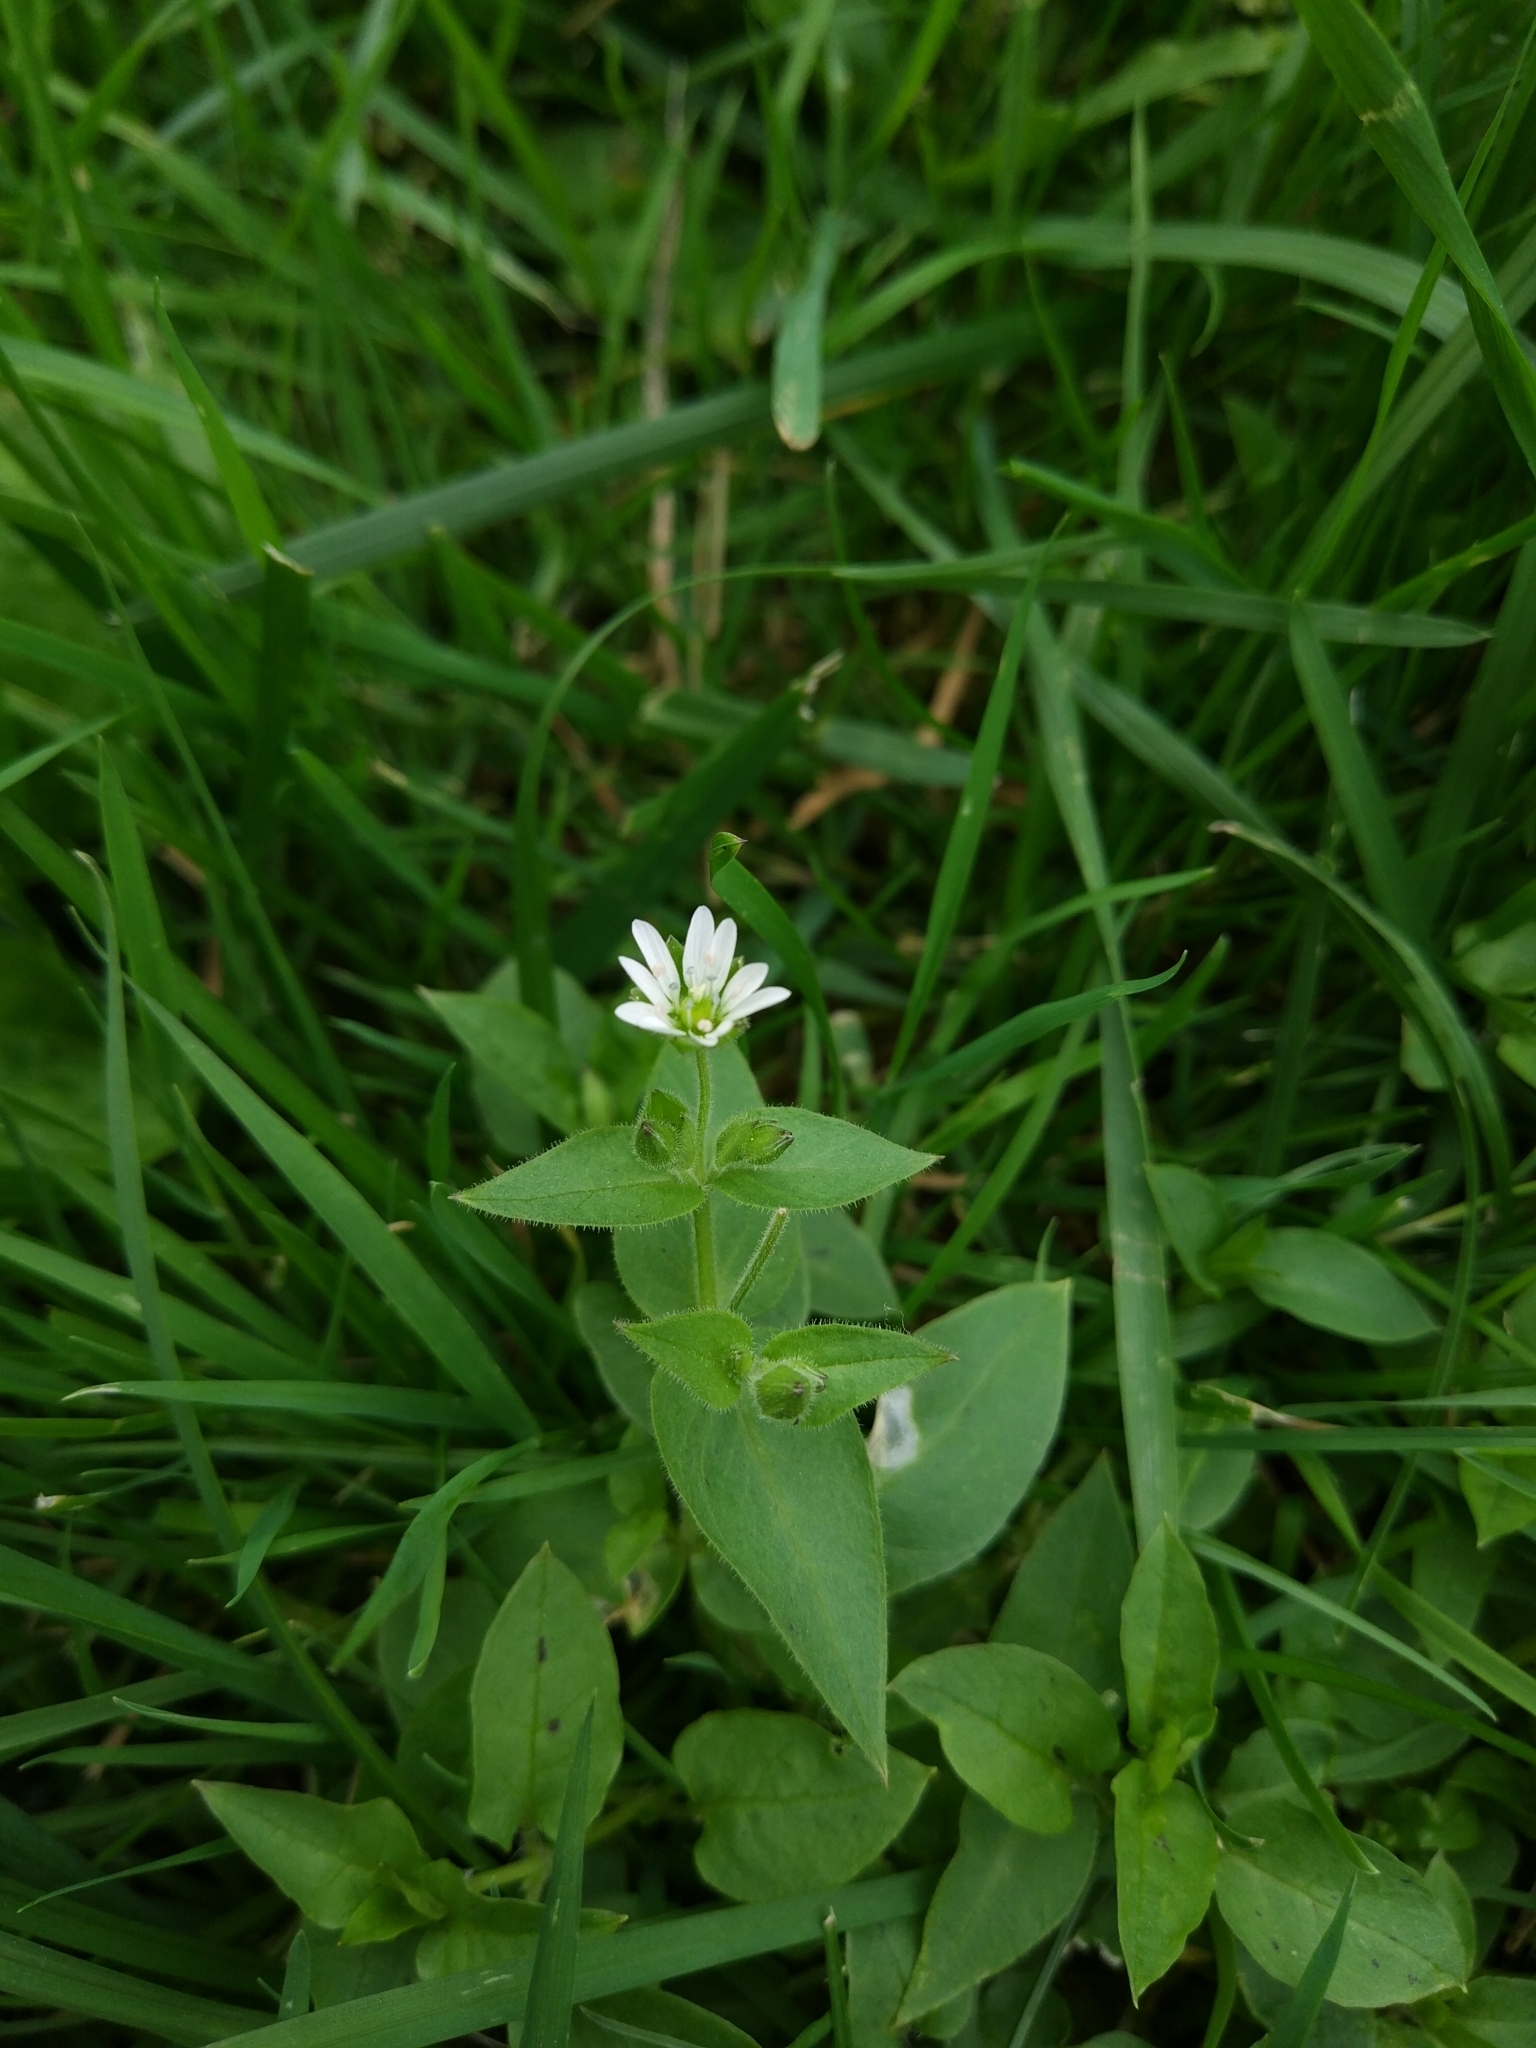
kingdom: Plantae
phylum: Tracheophyta
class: Magnoliopsida
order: Caryophyllales
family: Caryophyllaceae
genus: Stellaria
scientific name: Stellaria aquatica
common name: Water chickweed
